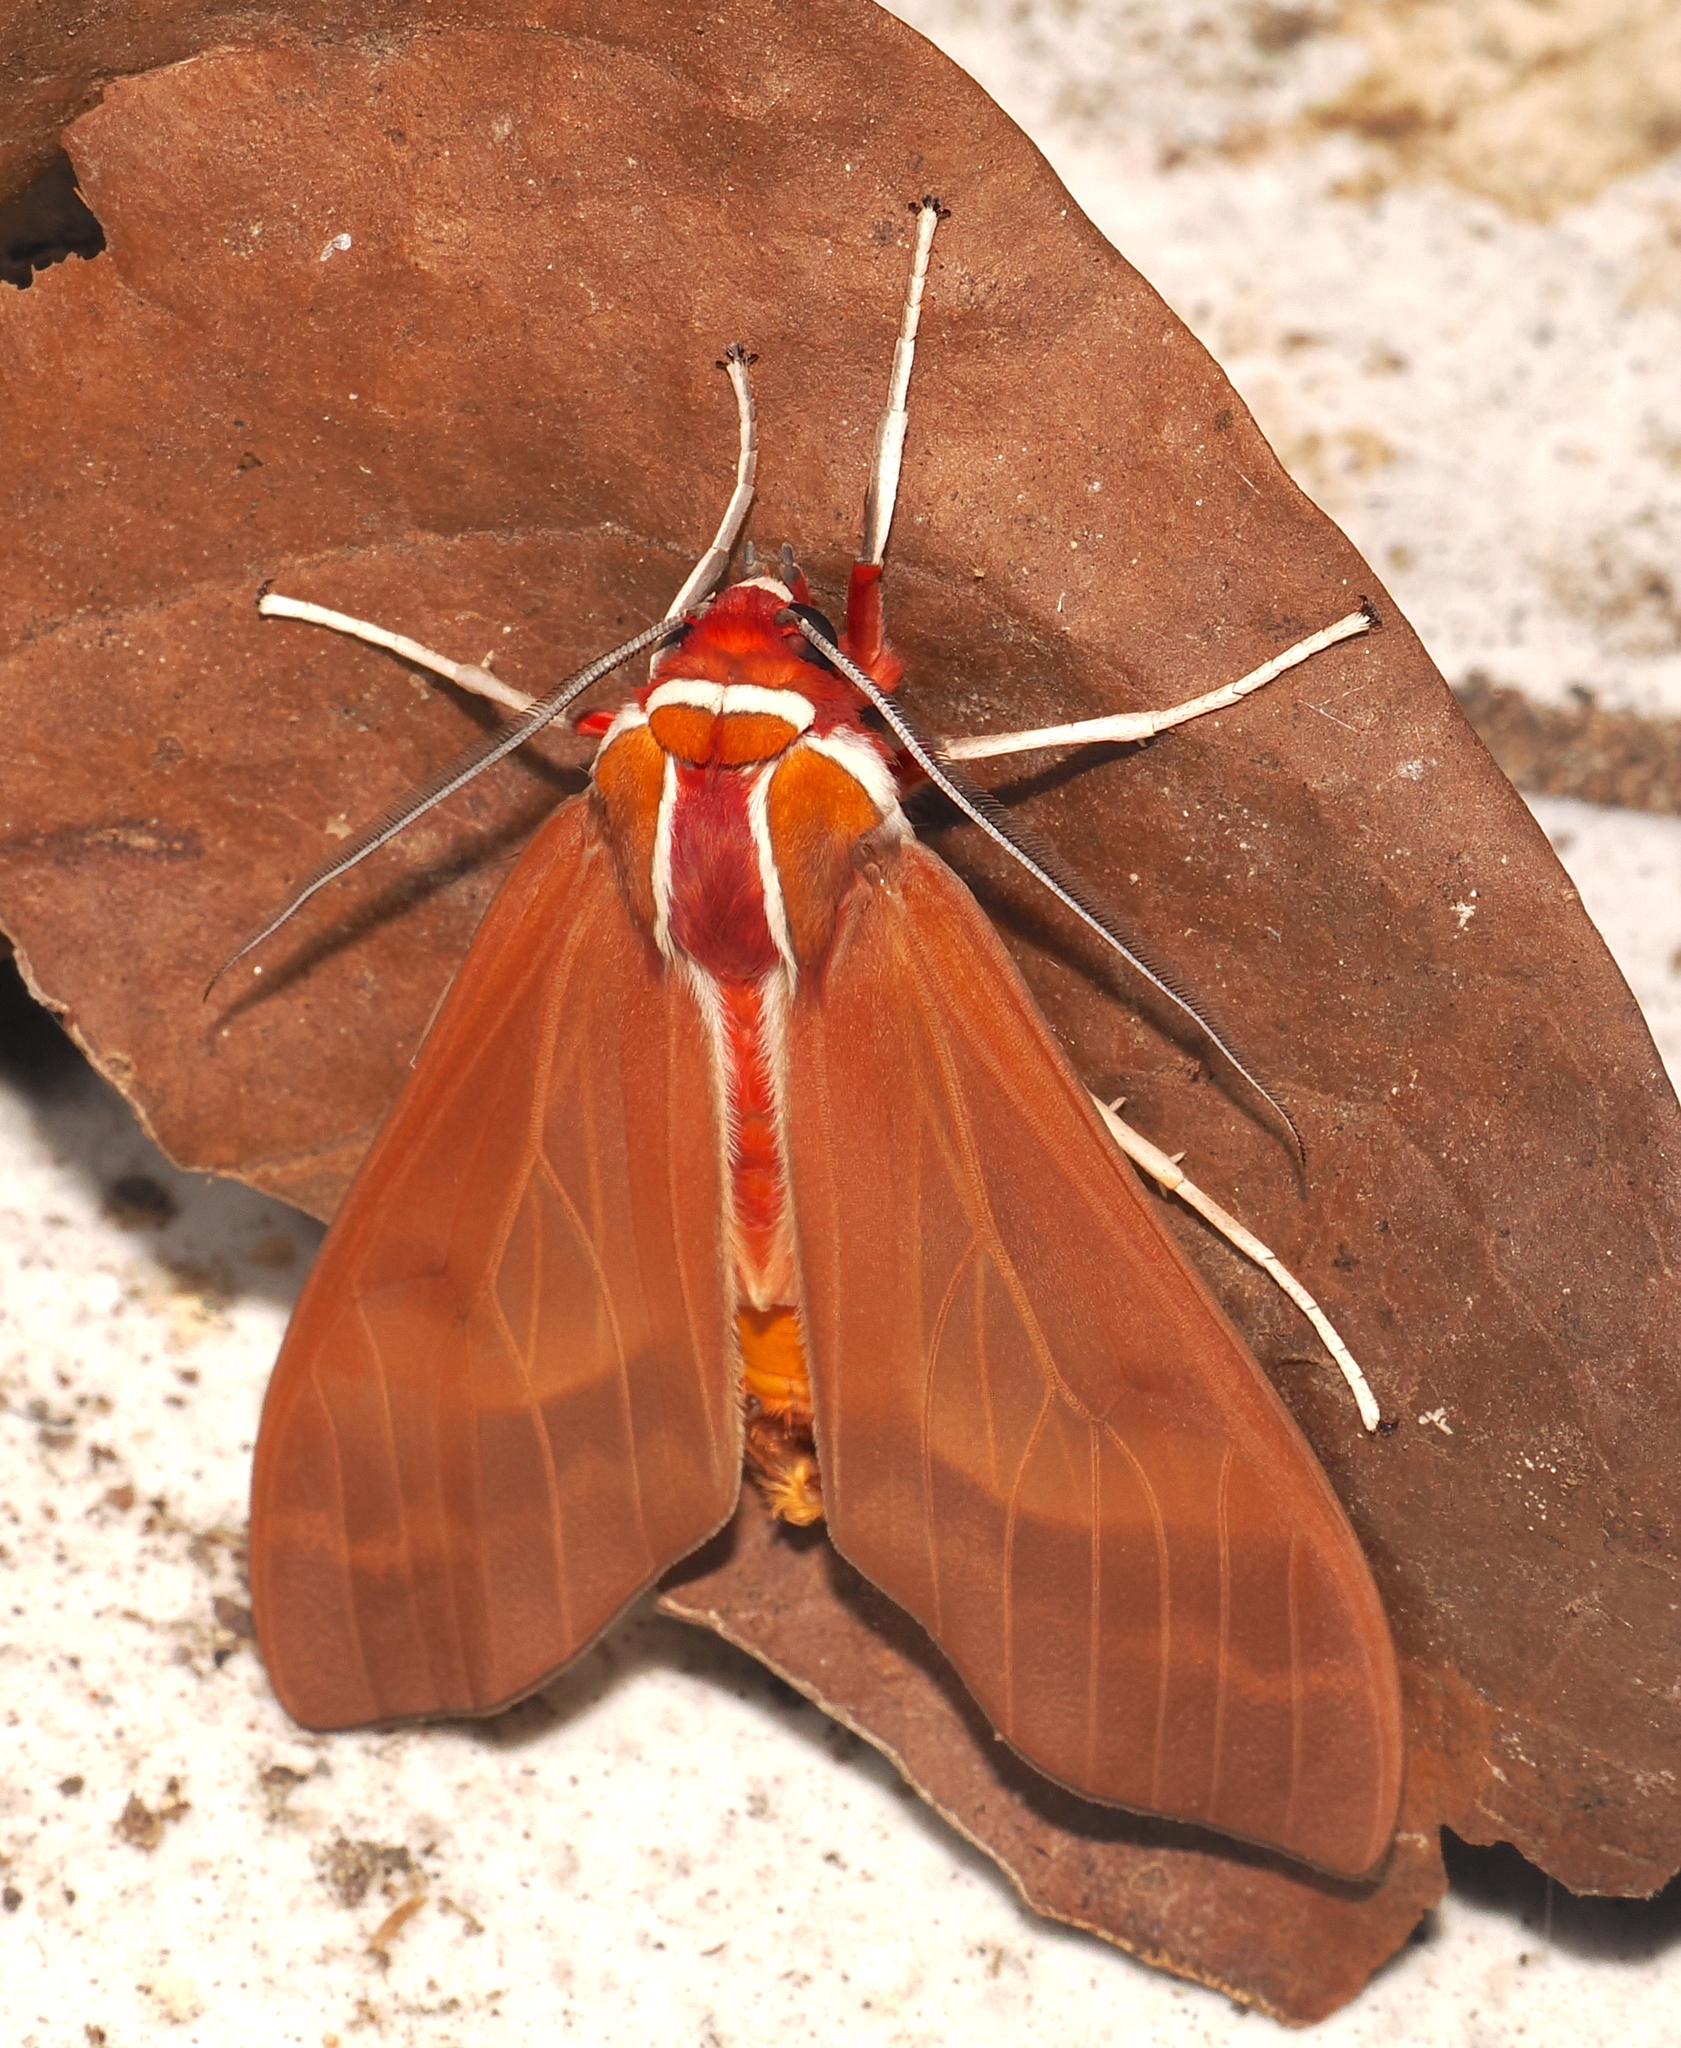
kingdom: Animalia
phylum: Arthropoda
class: Insecta
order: Lepidoptera
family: Erebidae
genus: Amastus
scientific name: Amastus coccinator
